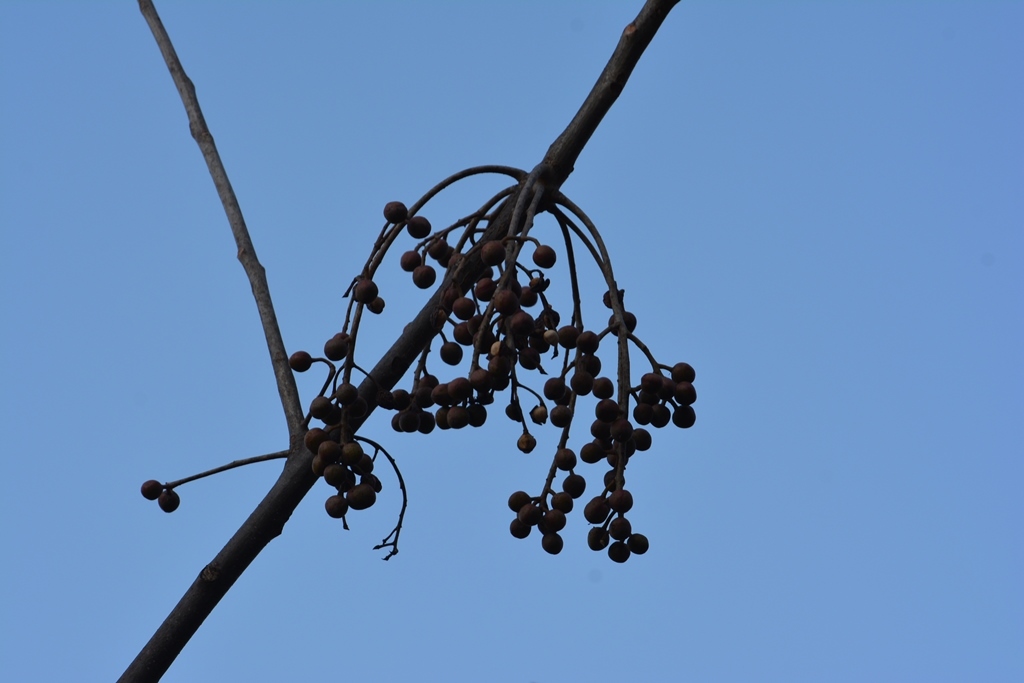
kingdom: Plantae
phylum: Tracheophyta
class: Magnoliopsida
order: Sapindales
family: Burseraceae
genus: Bursera
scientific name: Bursera simaruba
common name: Turpentine tree
